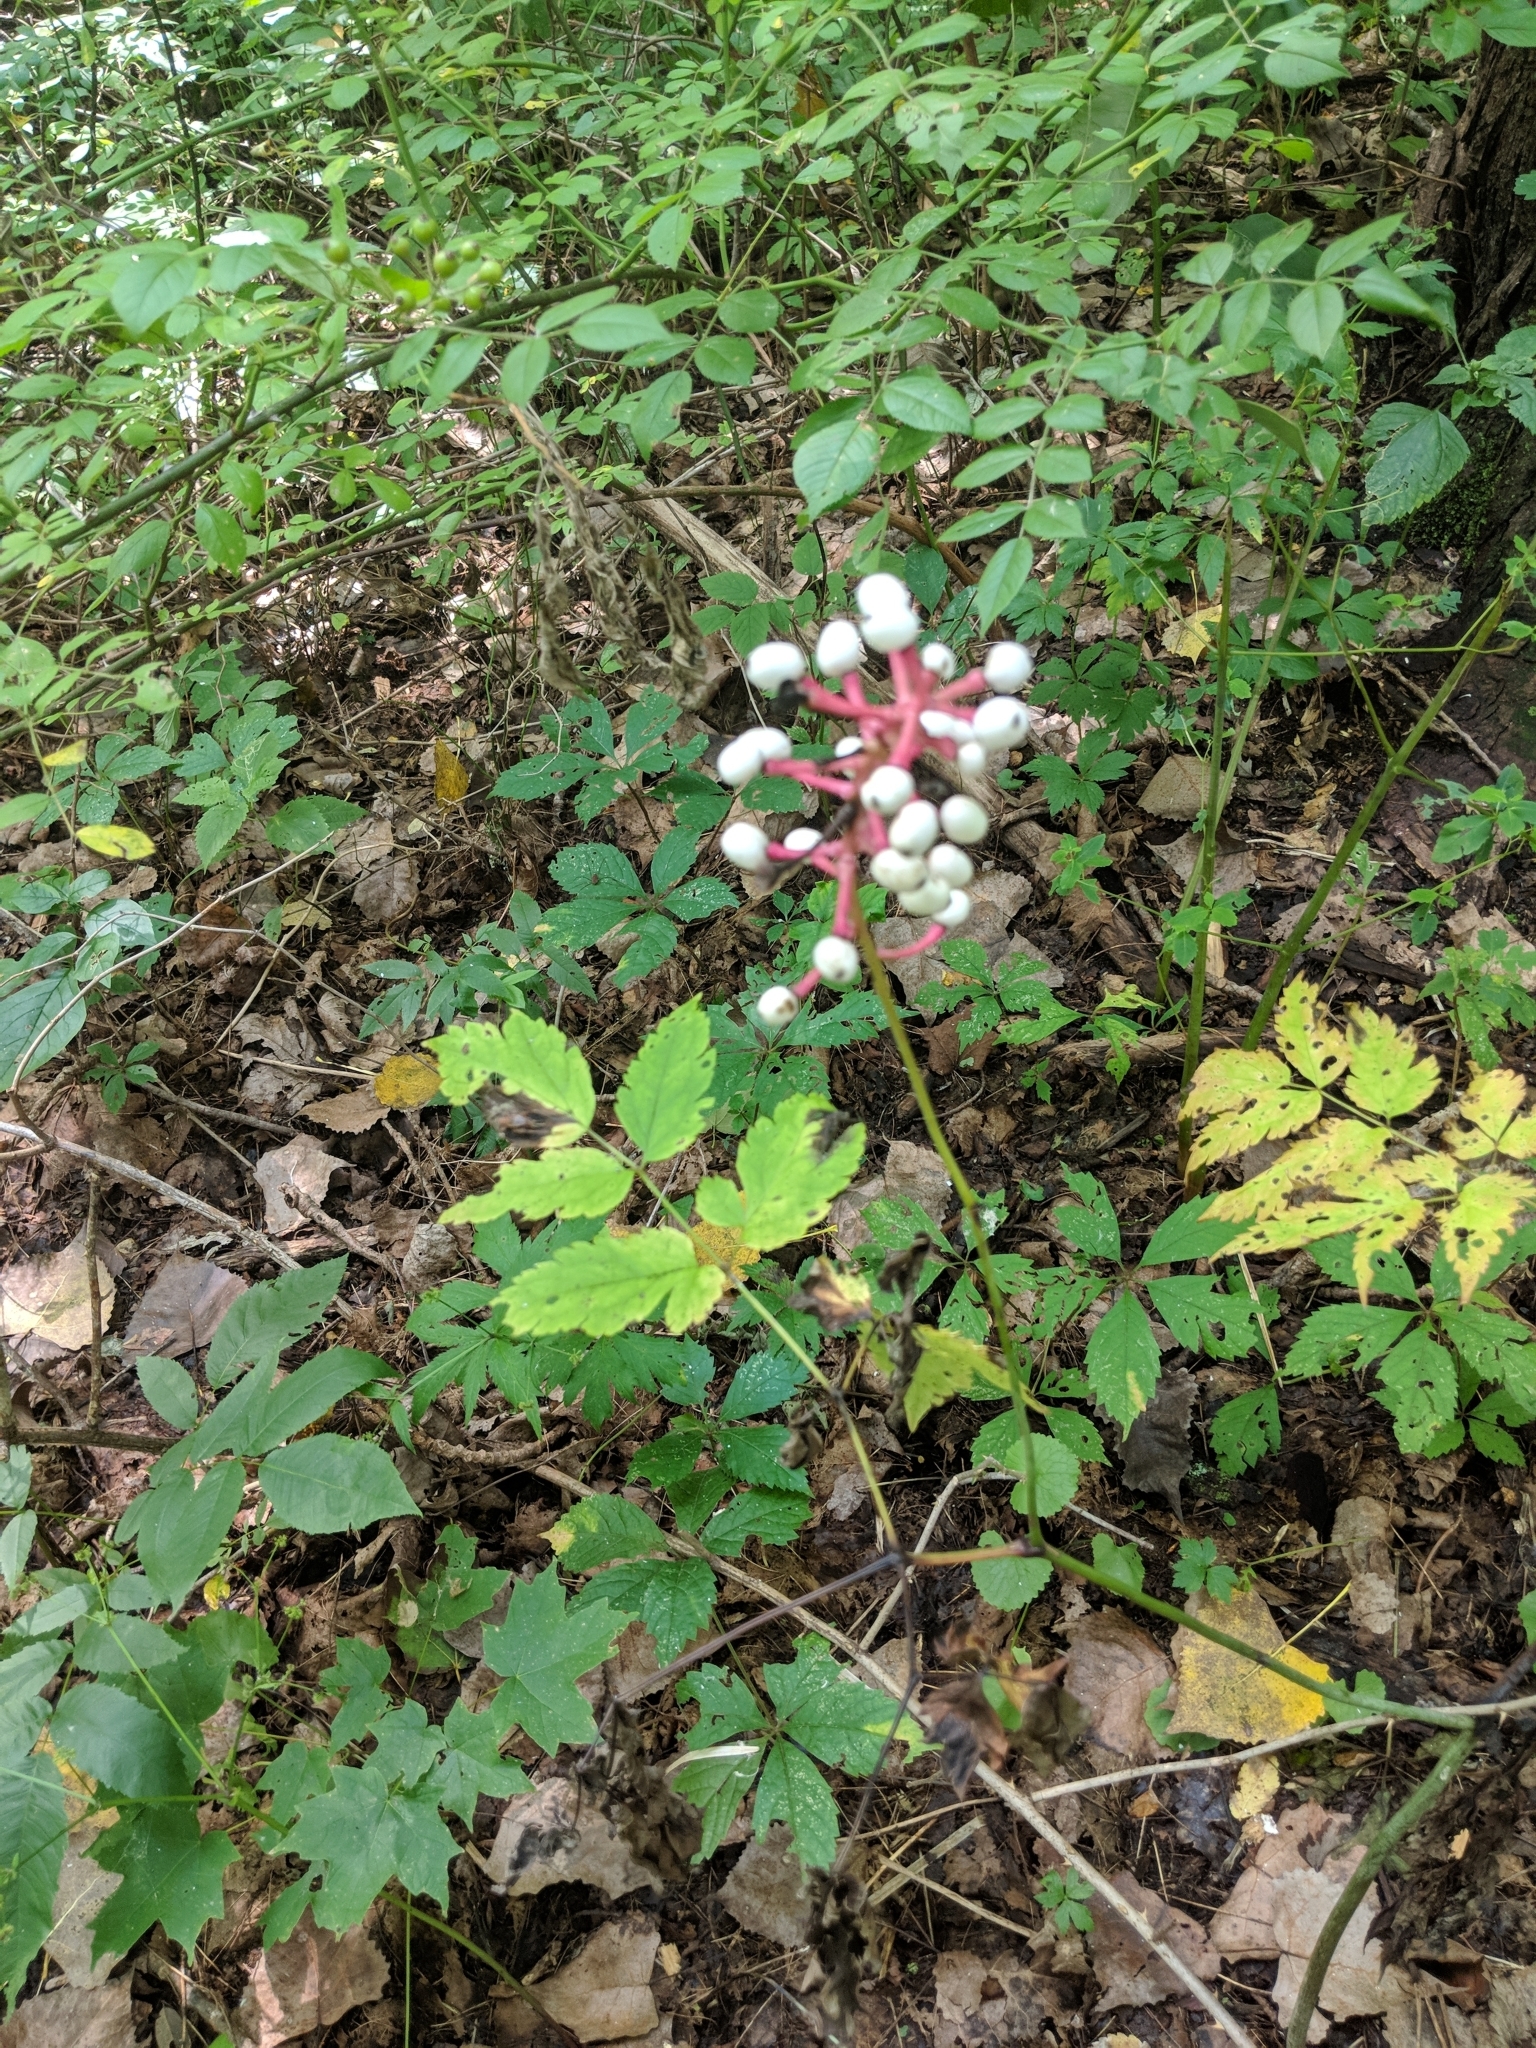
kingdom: Plantae
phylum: Tracheophyta
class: Magnoliopsida
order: Ranunculales
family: Ranunculaceae
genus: Actaea
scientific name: Actaea pachypoda
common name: Doll's-eyes
